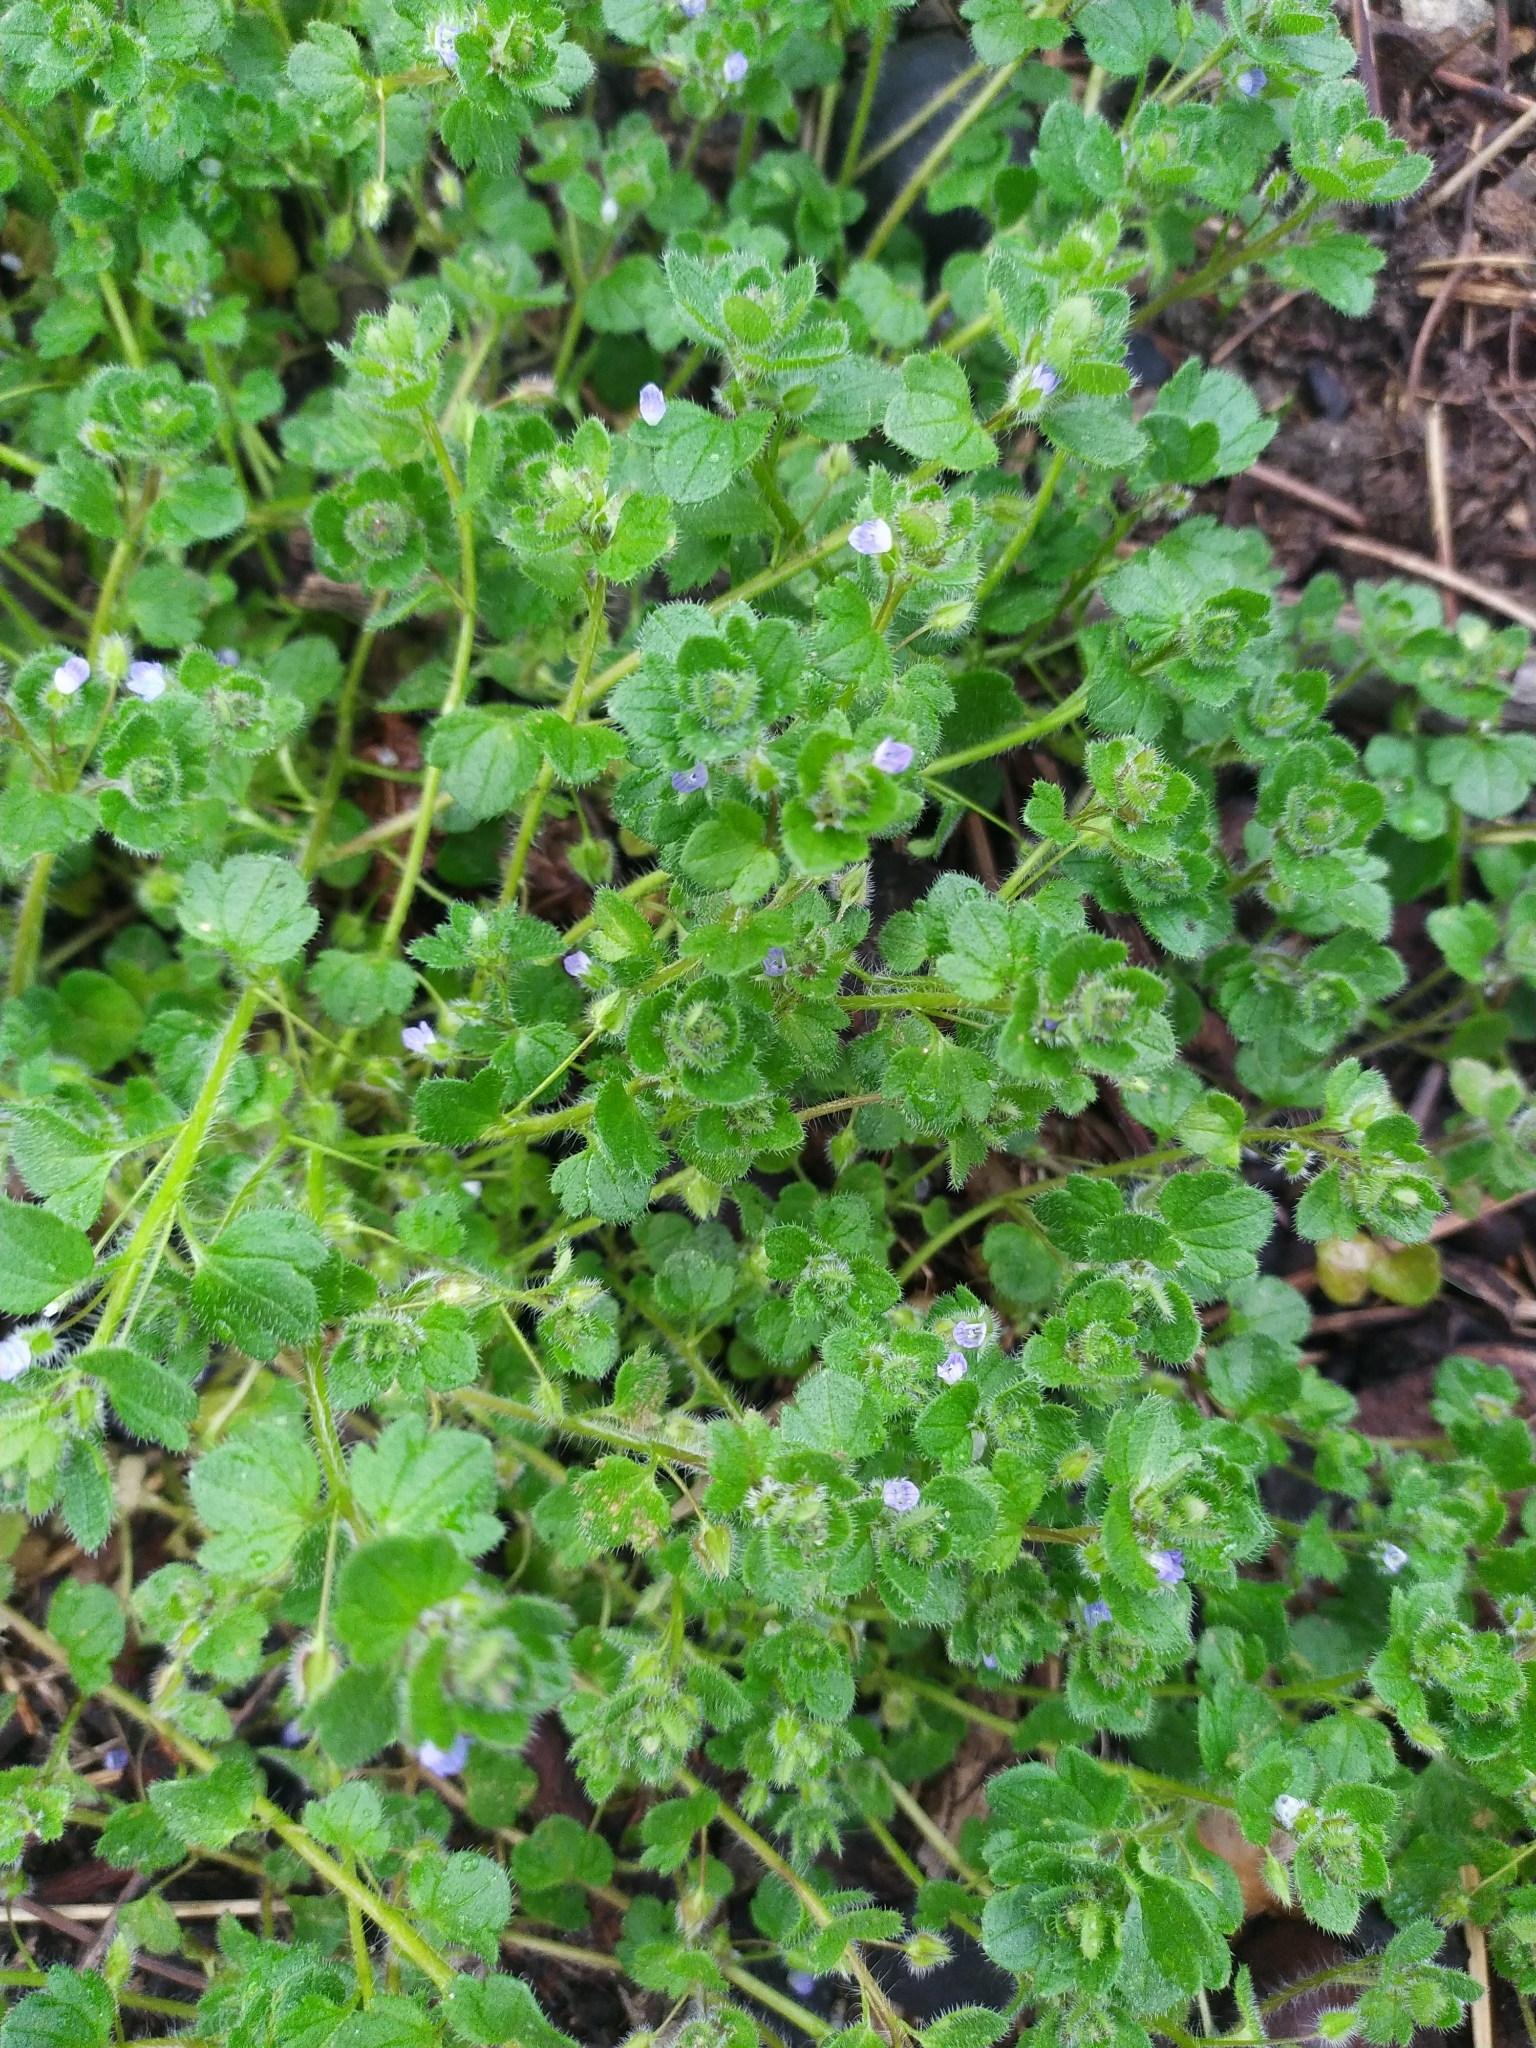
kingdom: Plantae
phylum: Tracheophyta
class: Magnoliopsida
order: Lamiales
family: Plantaginaceae
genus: Veronica
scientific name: Veronica hederifolia
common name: Ivy-leaved speedwell
